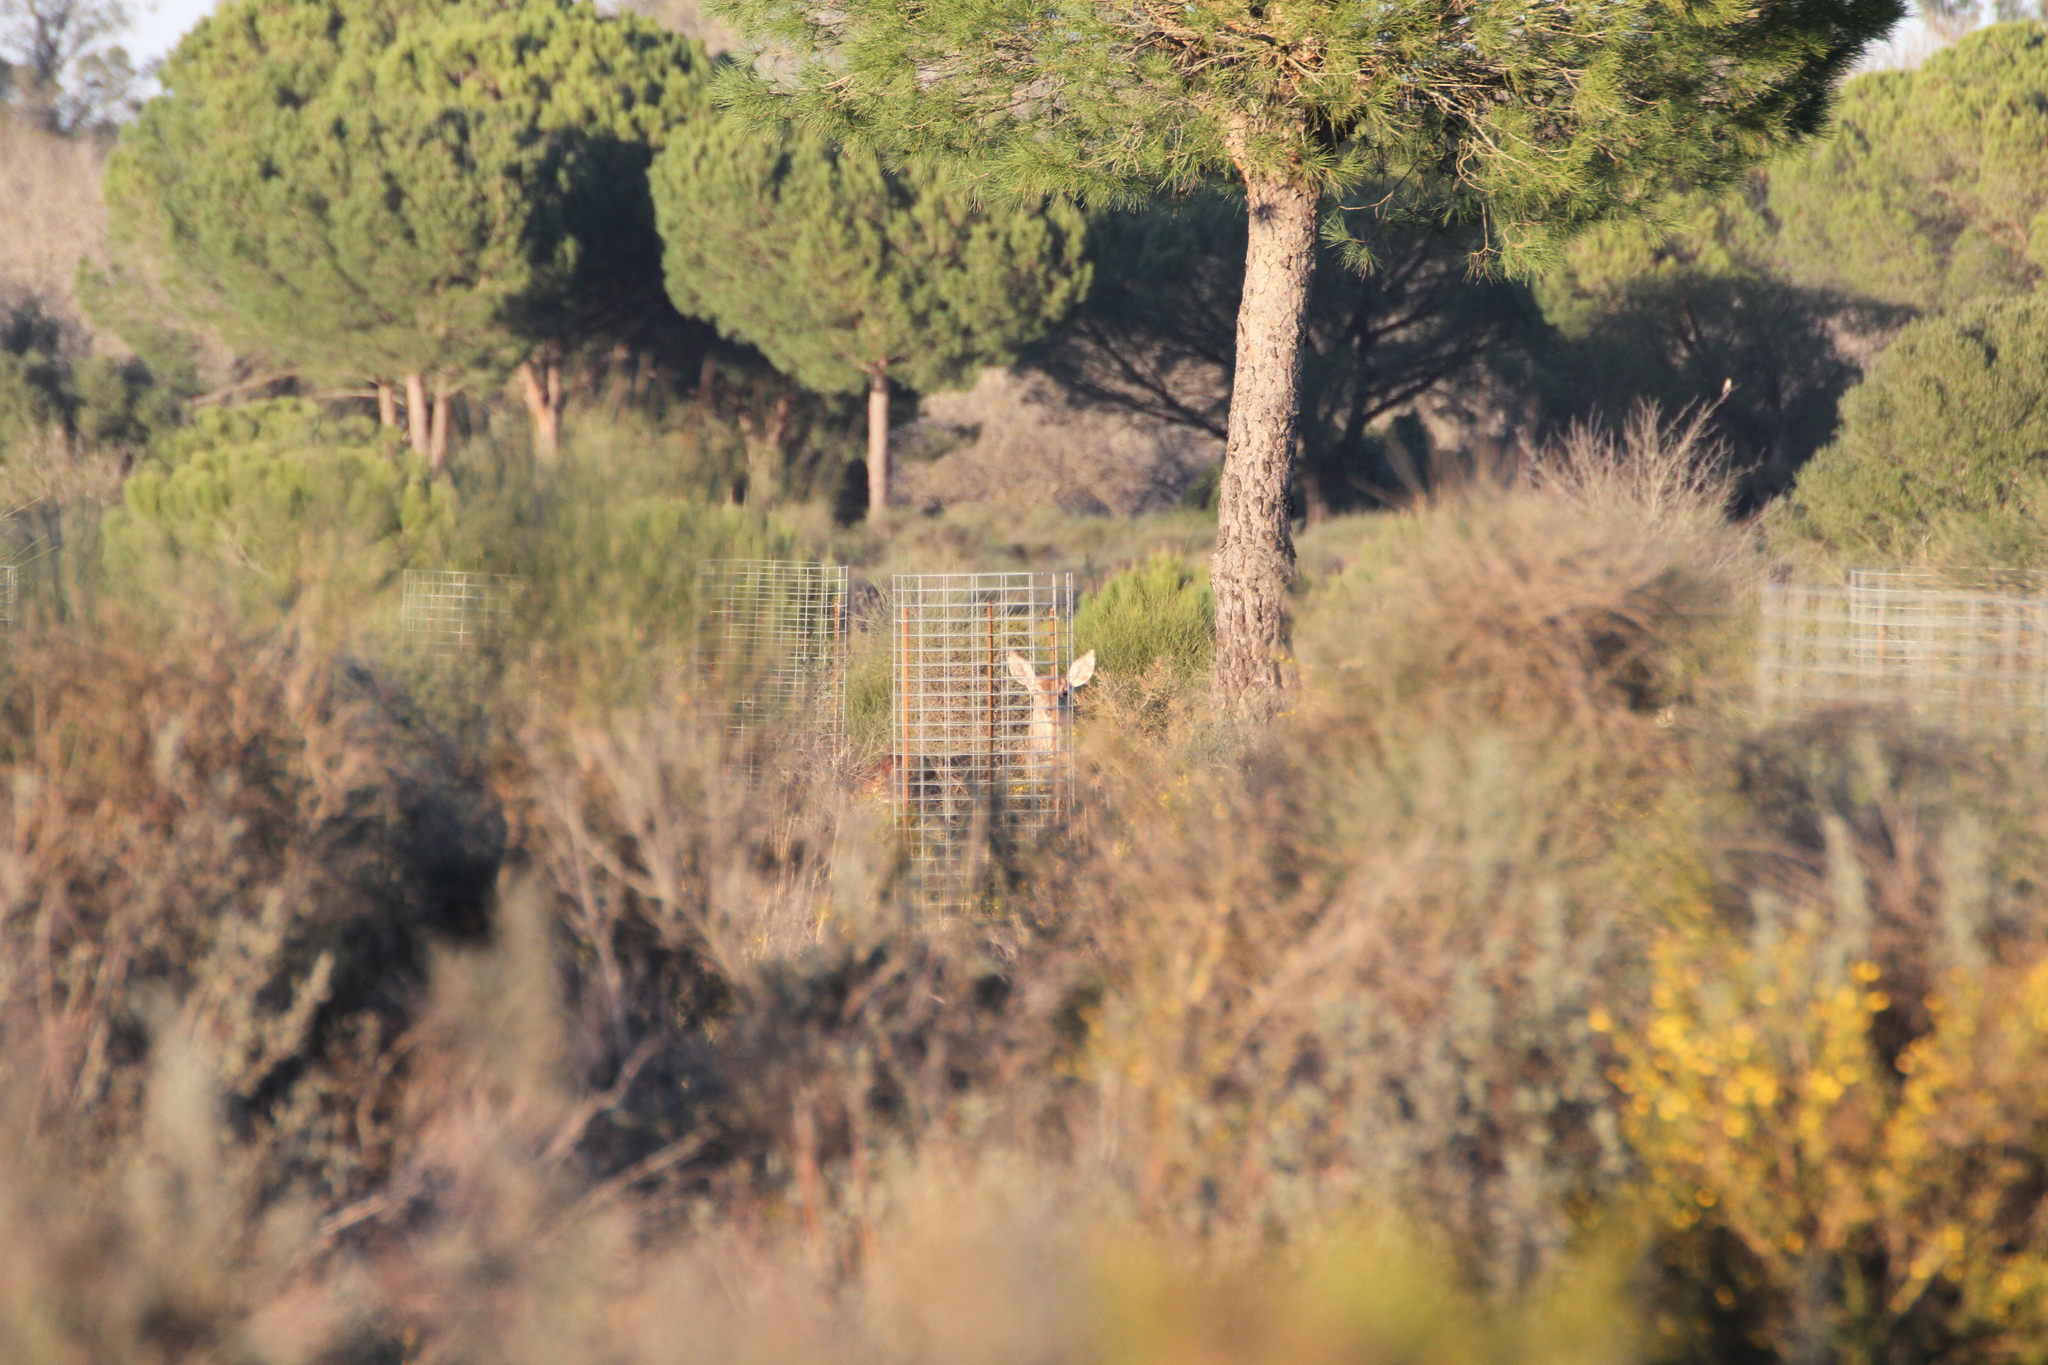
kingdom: Animalia
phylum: Chordata
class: Mammalia
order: Artiodactyla
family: Cervidae
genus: Cervus
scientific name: Cervus elaphus
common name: Red deer
